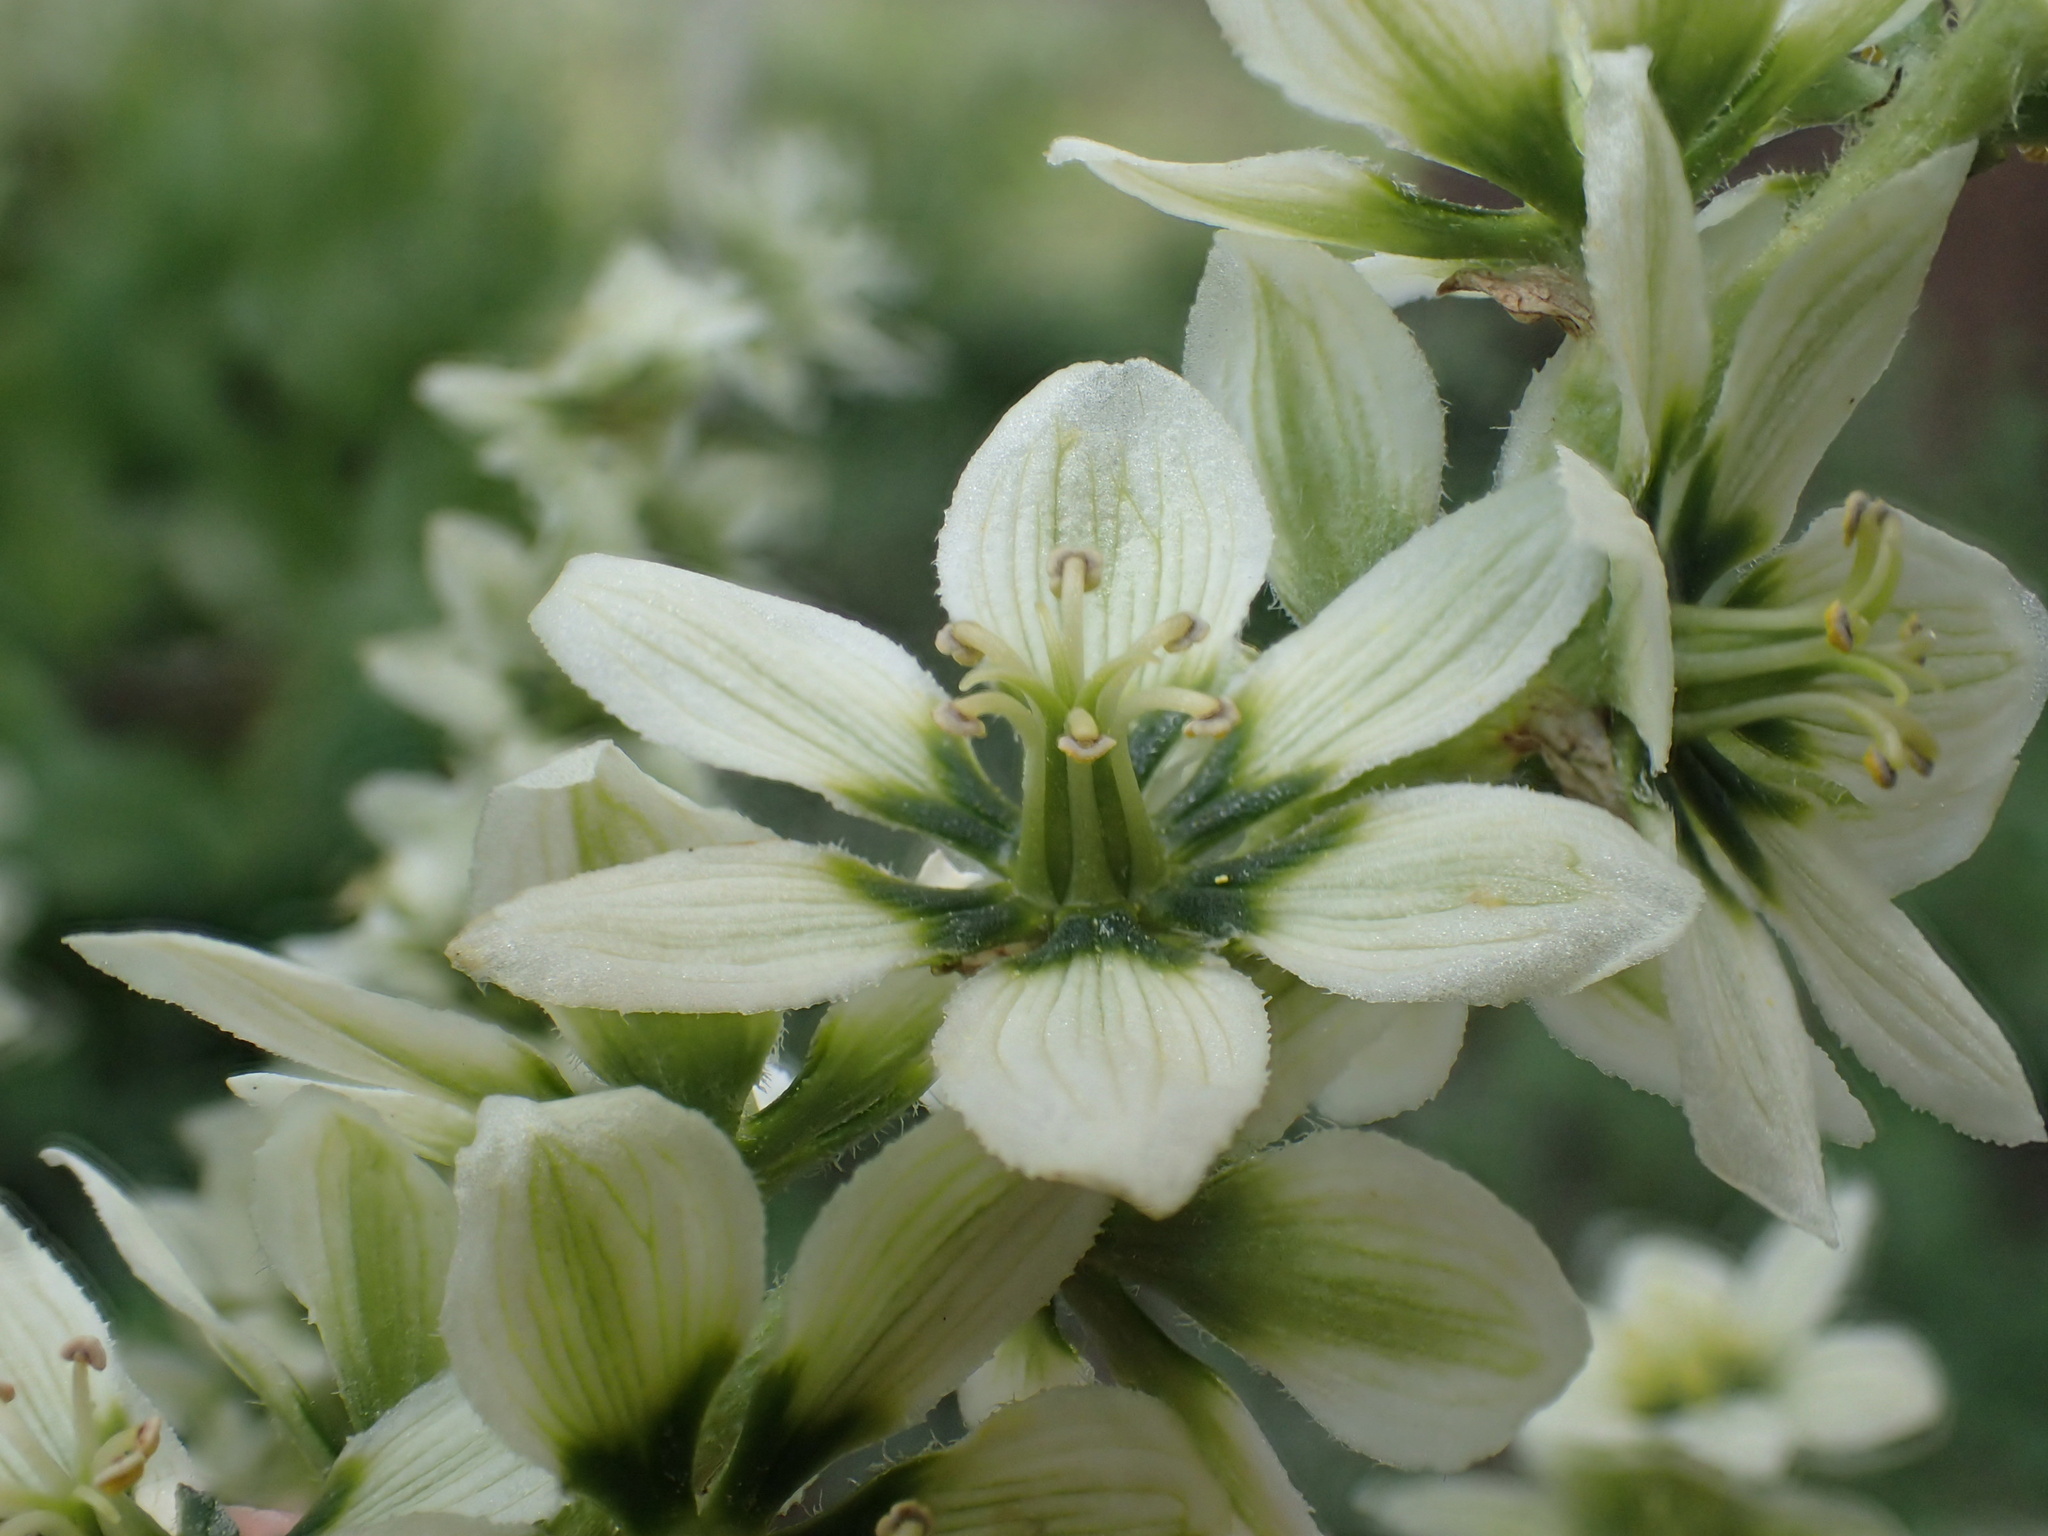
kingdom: Plantae
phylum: Tracheophyta
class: Liliopsida
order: Liliales
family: Melanthiaceae
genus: Veratrum
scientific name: Veratrum californicum
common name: California veratrum
